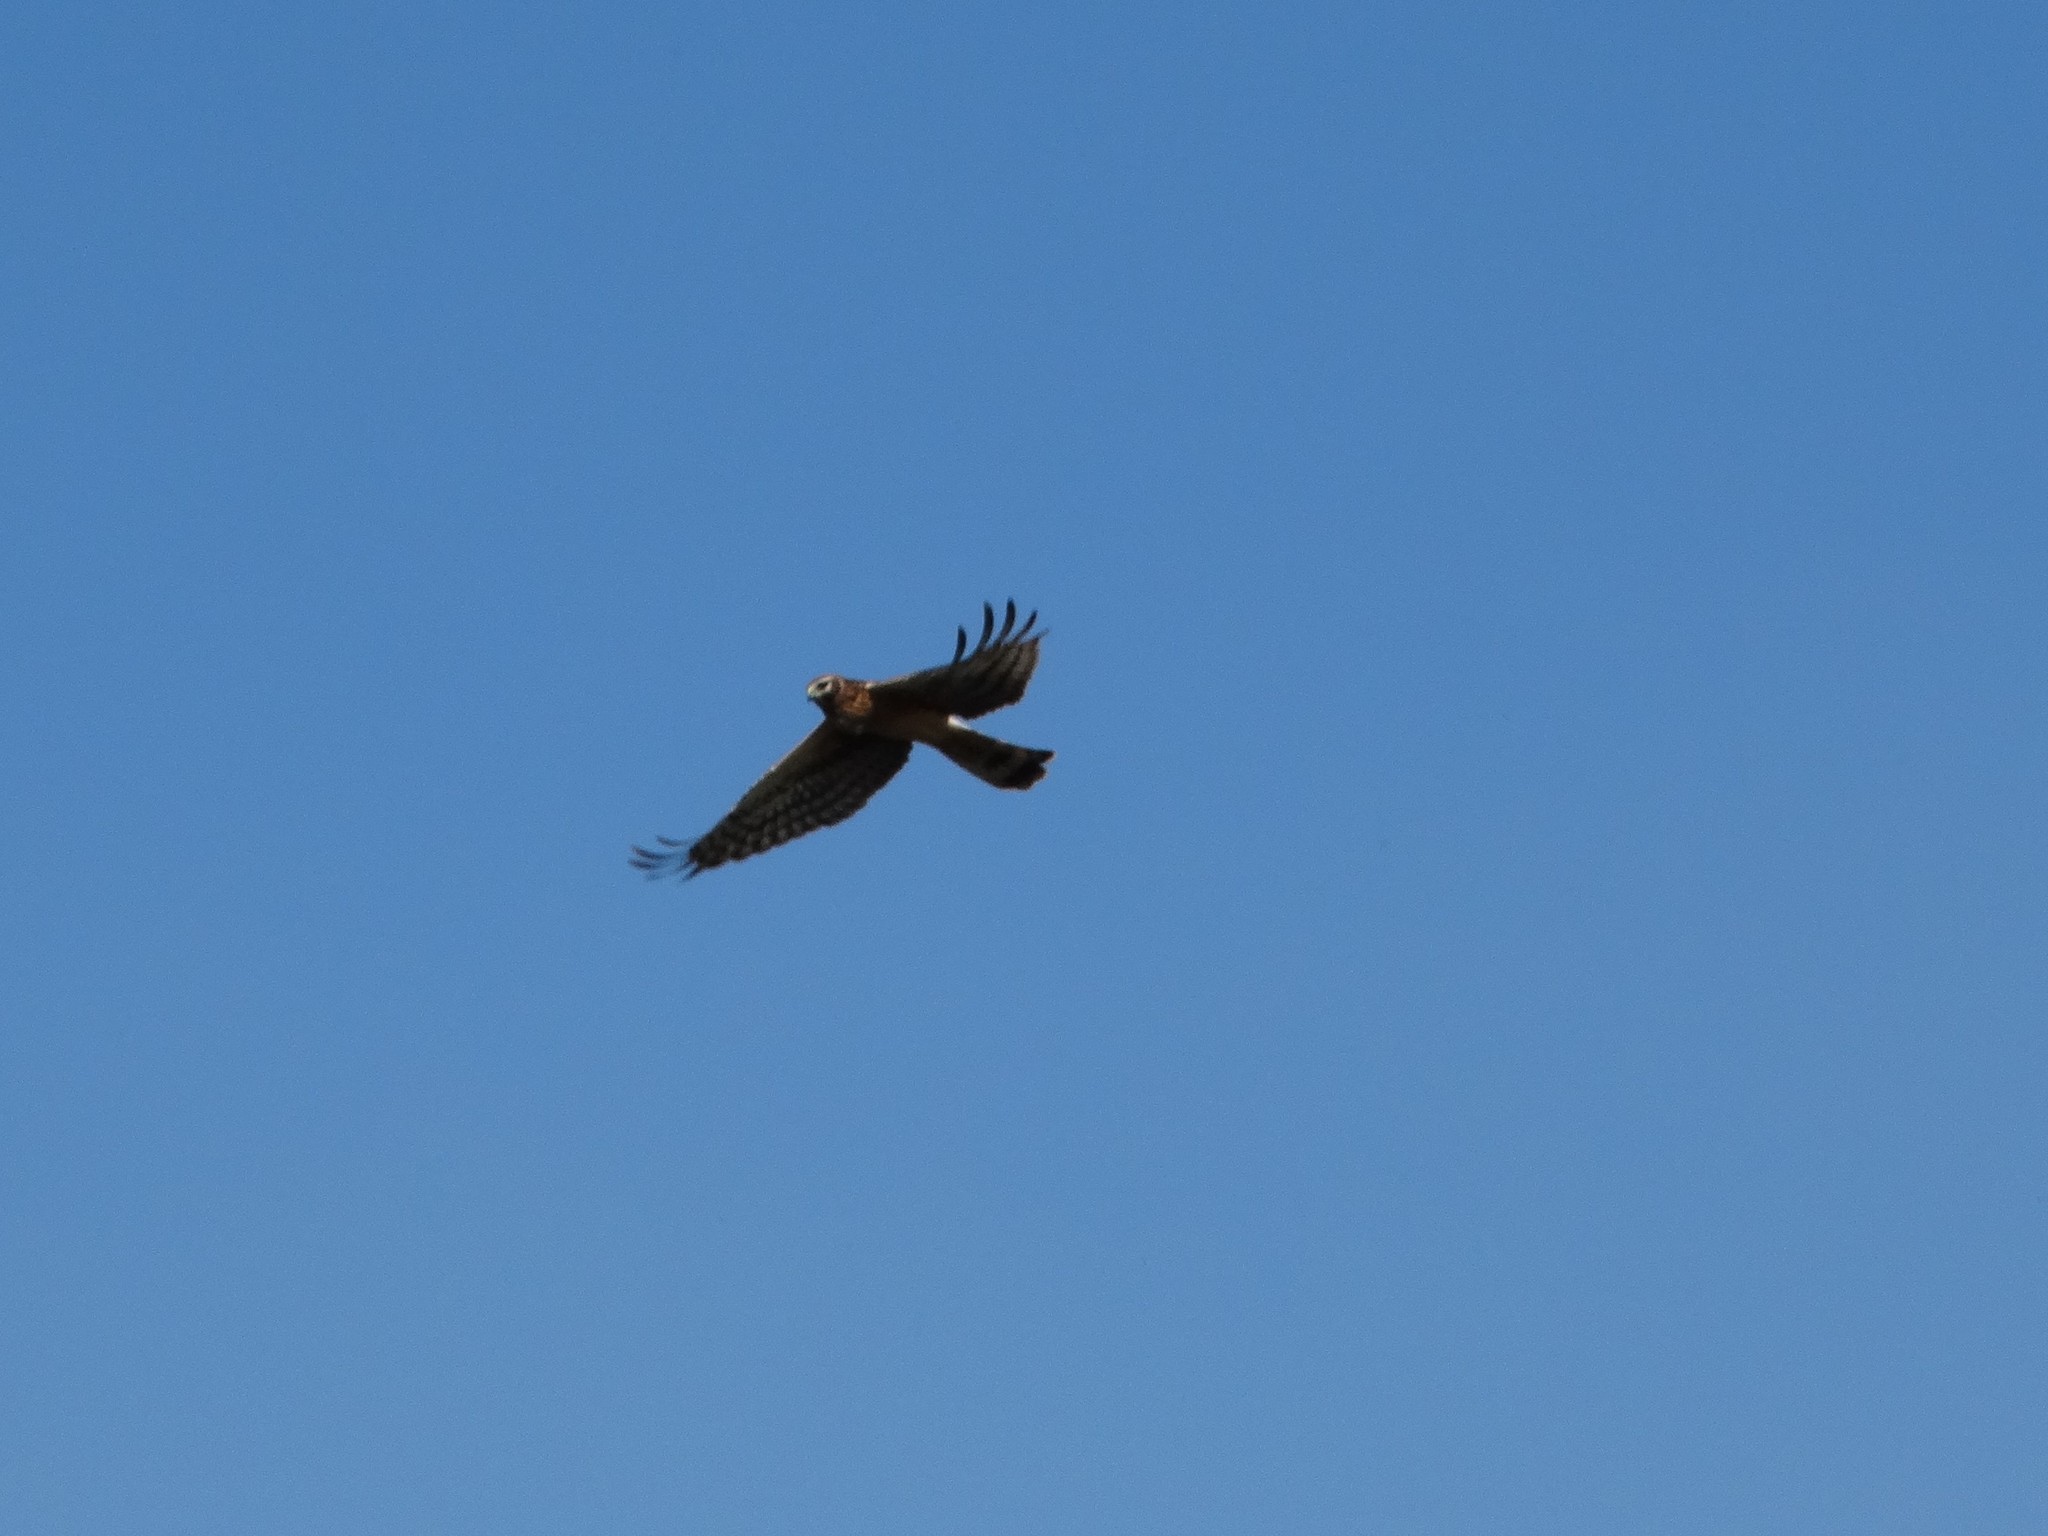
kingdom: Animalia
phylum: Chordata
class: Aves
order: Accipitriformes
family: Accipitridae
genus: Circus
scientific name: Circus cyaneus
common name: Hen harrier
